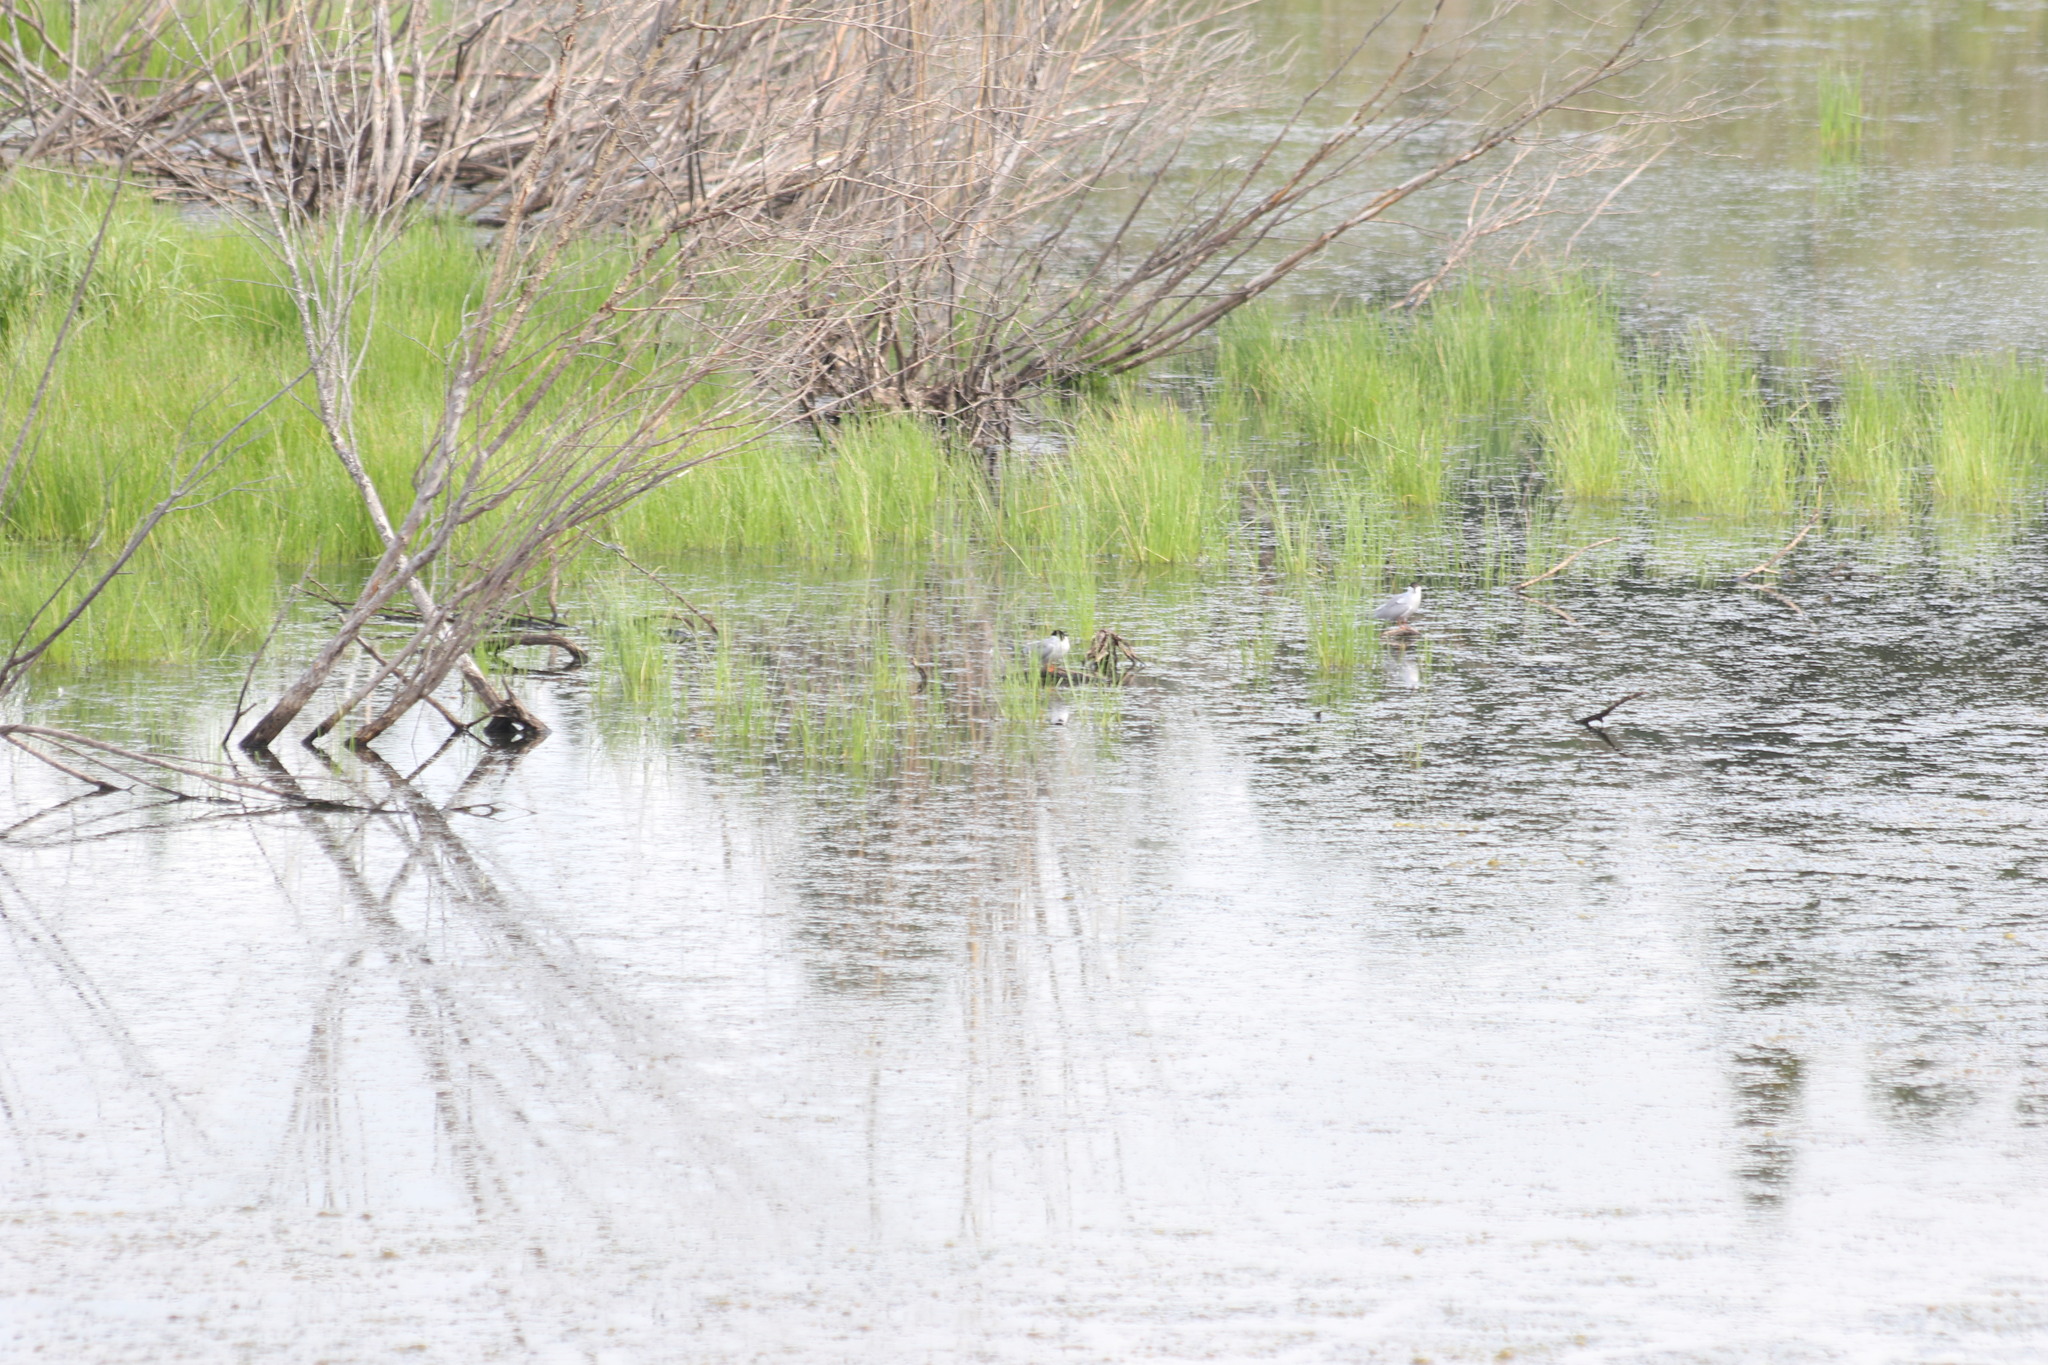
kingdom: Animalia
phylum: Chordata
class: Aves
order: Charadriiformes
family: Laridae
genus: Sterna
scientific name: Sterna hirundo
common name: Common tern
